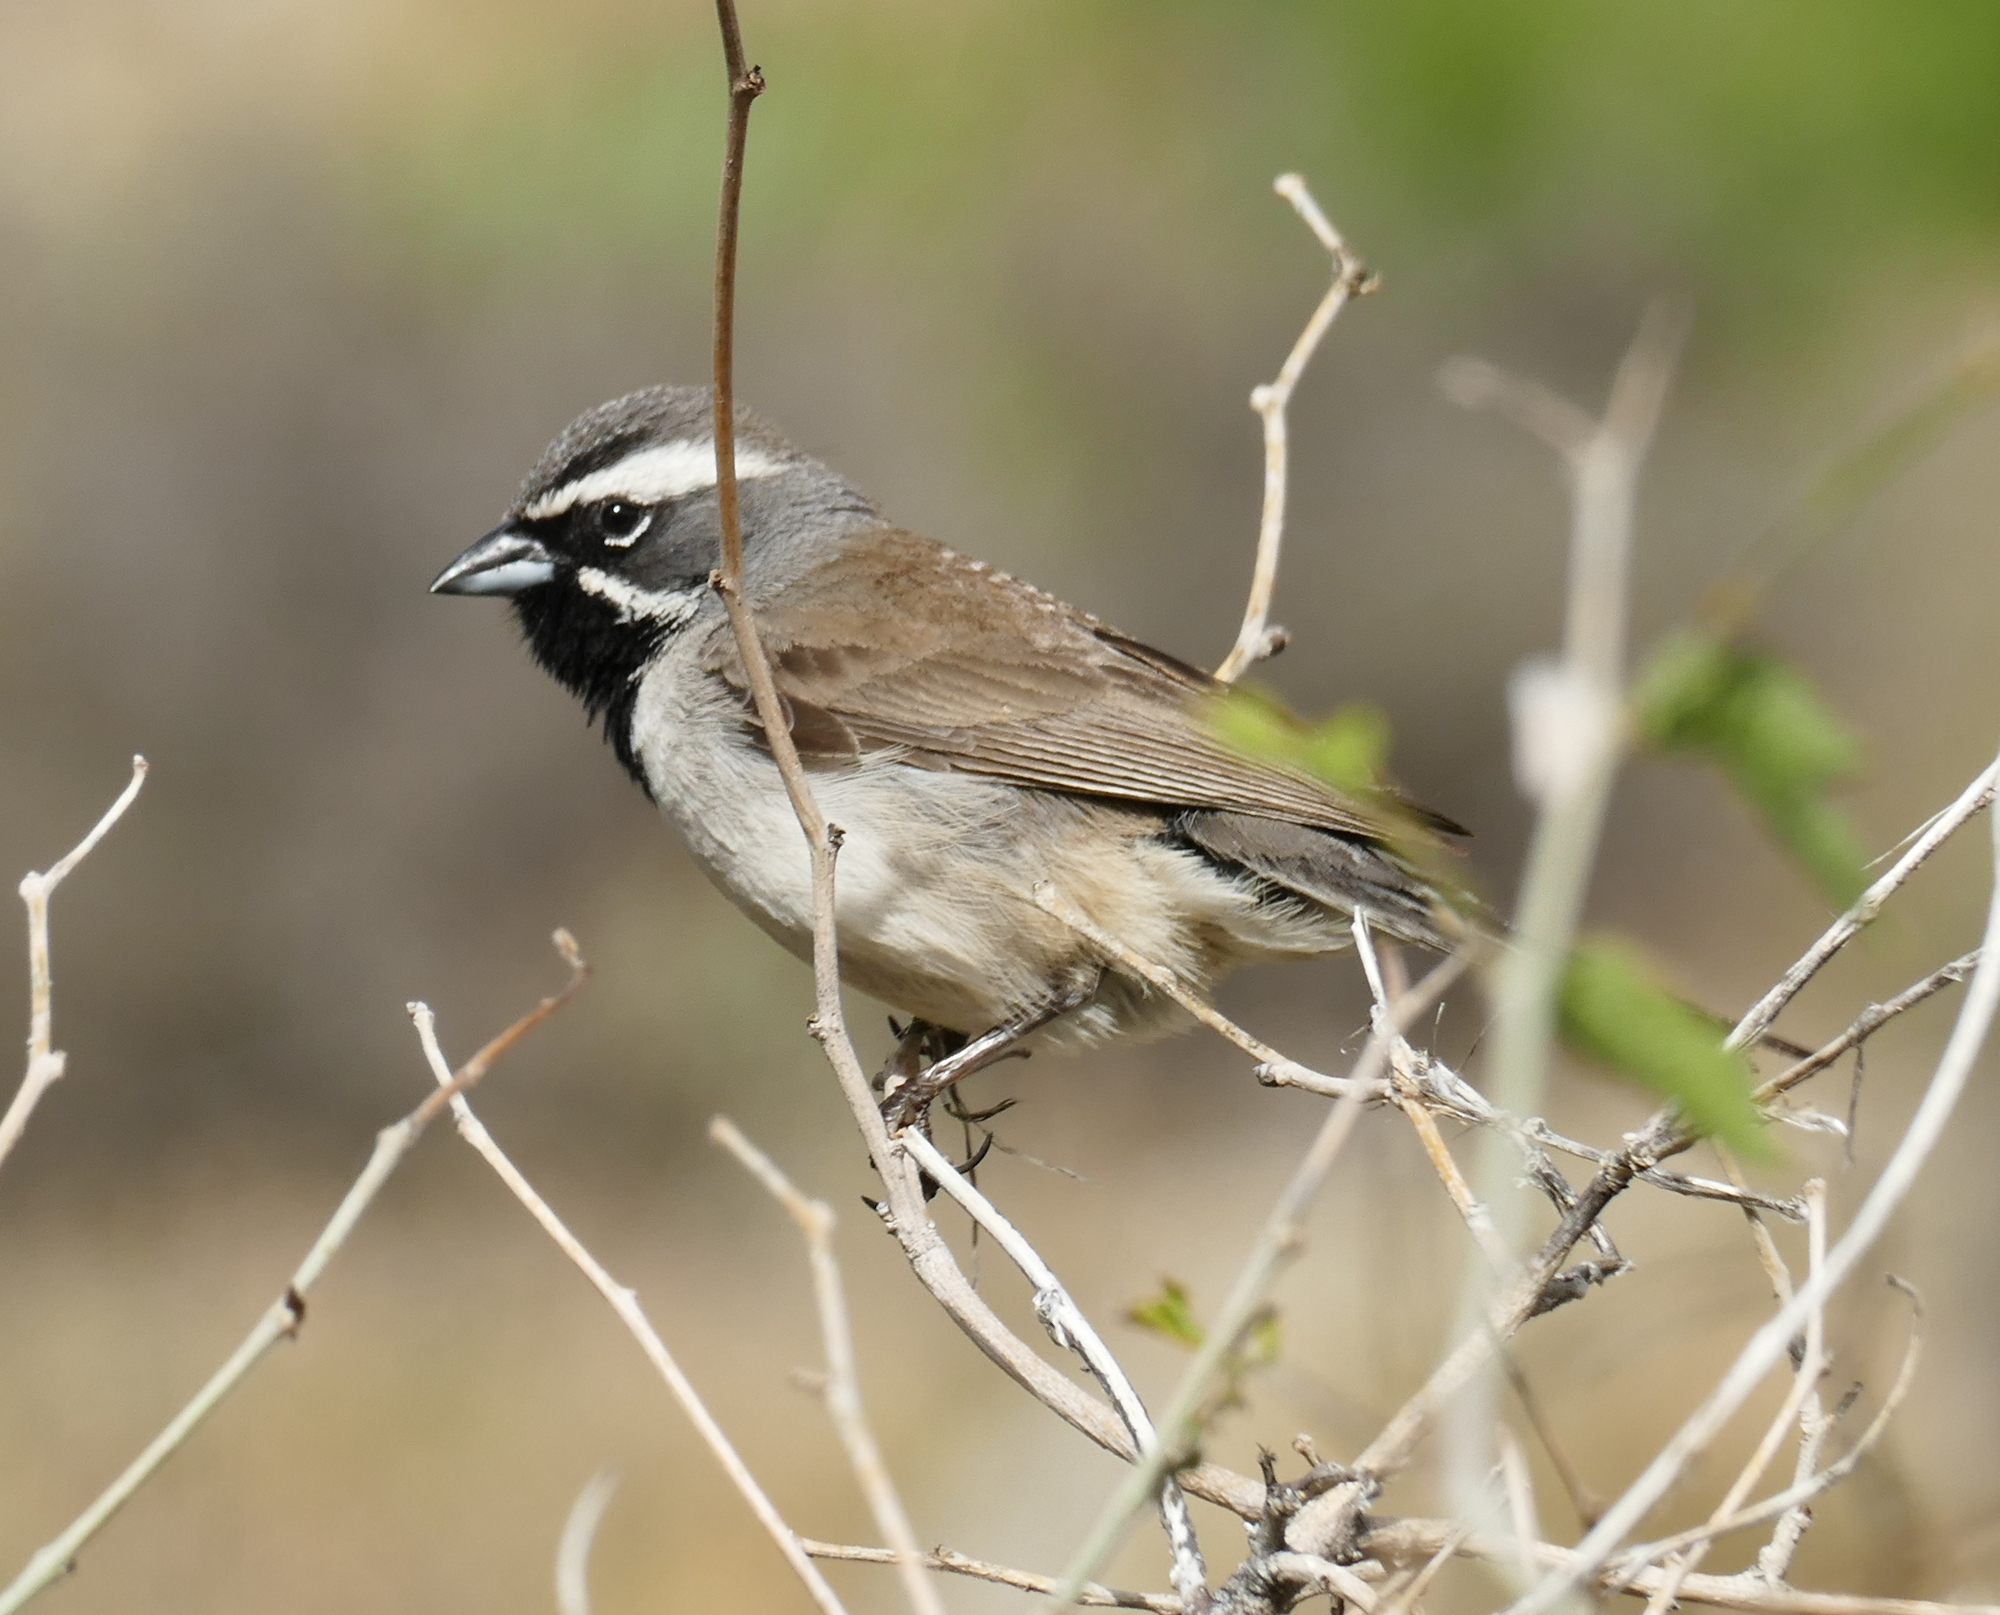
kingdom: Animalia
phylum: Chordata
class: Aves
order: Passeriformes
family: Passerellidae
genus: Amphispiza
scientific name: Amphispiza bilineata
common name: Black-throated sparrow
